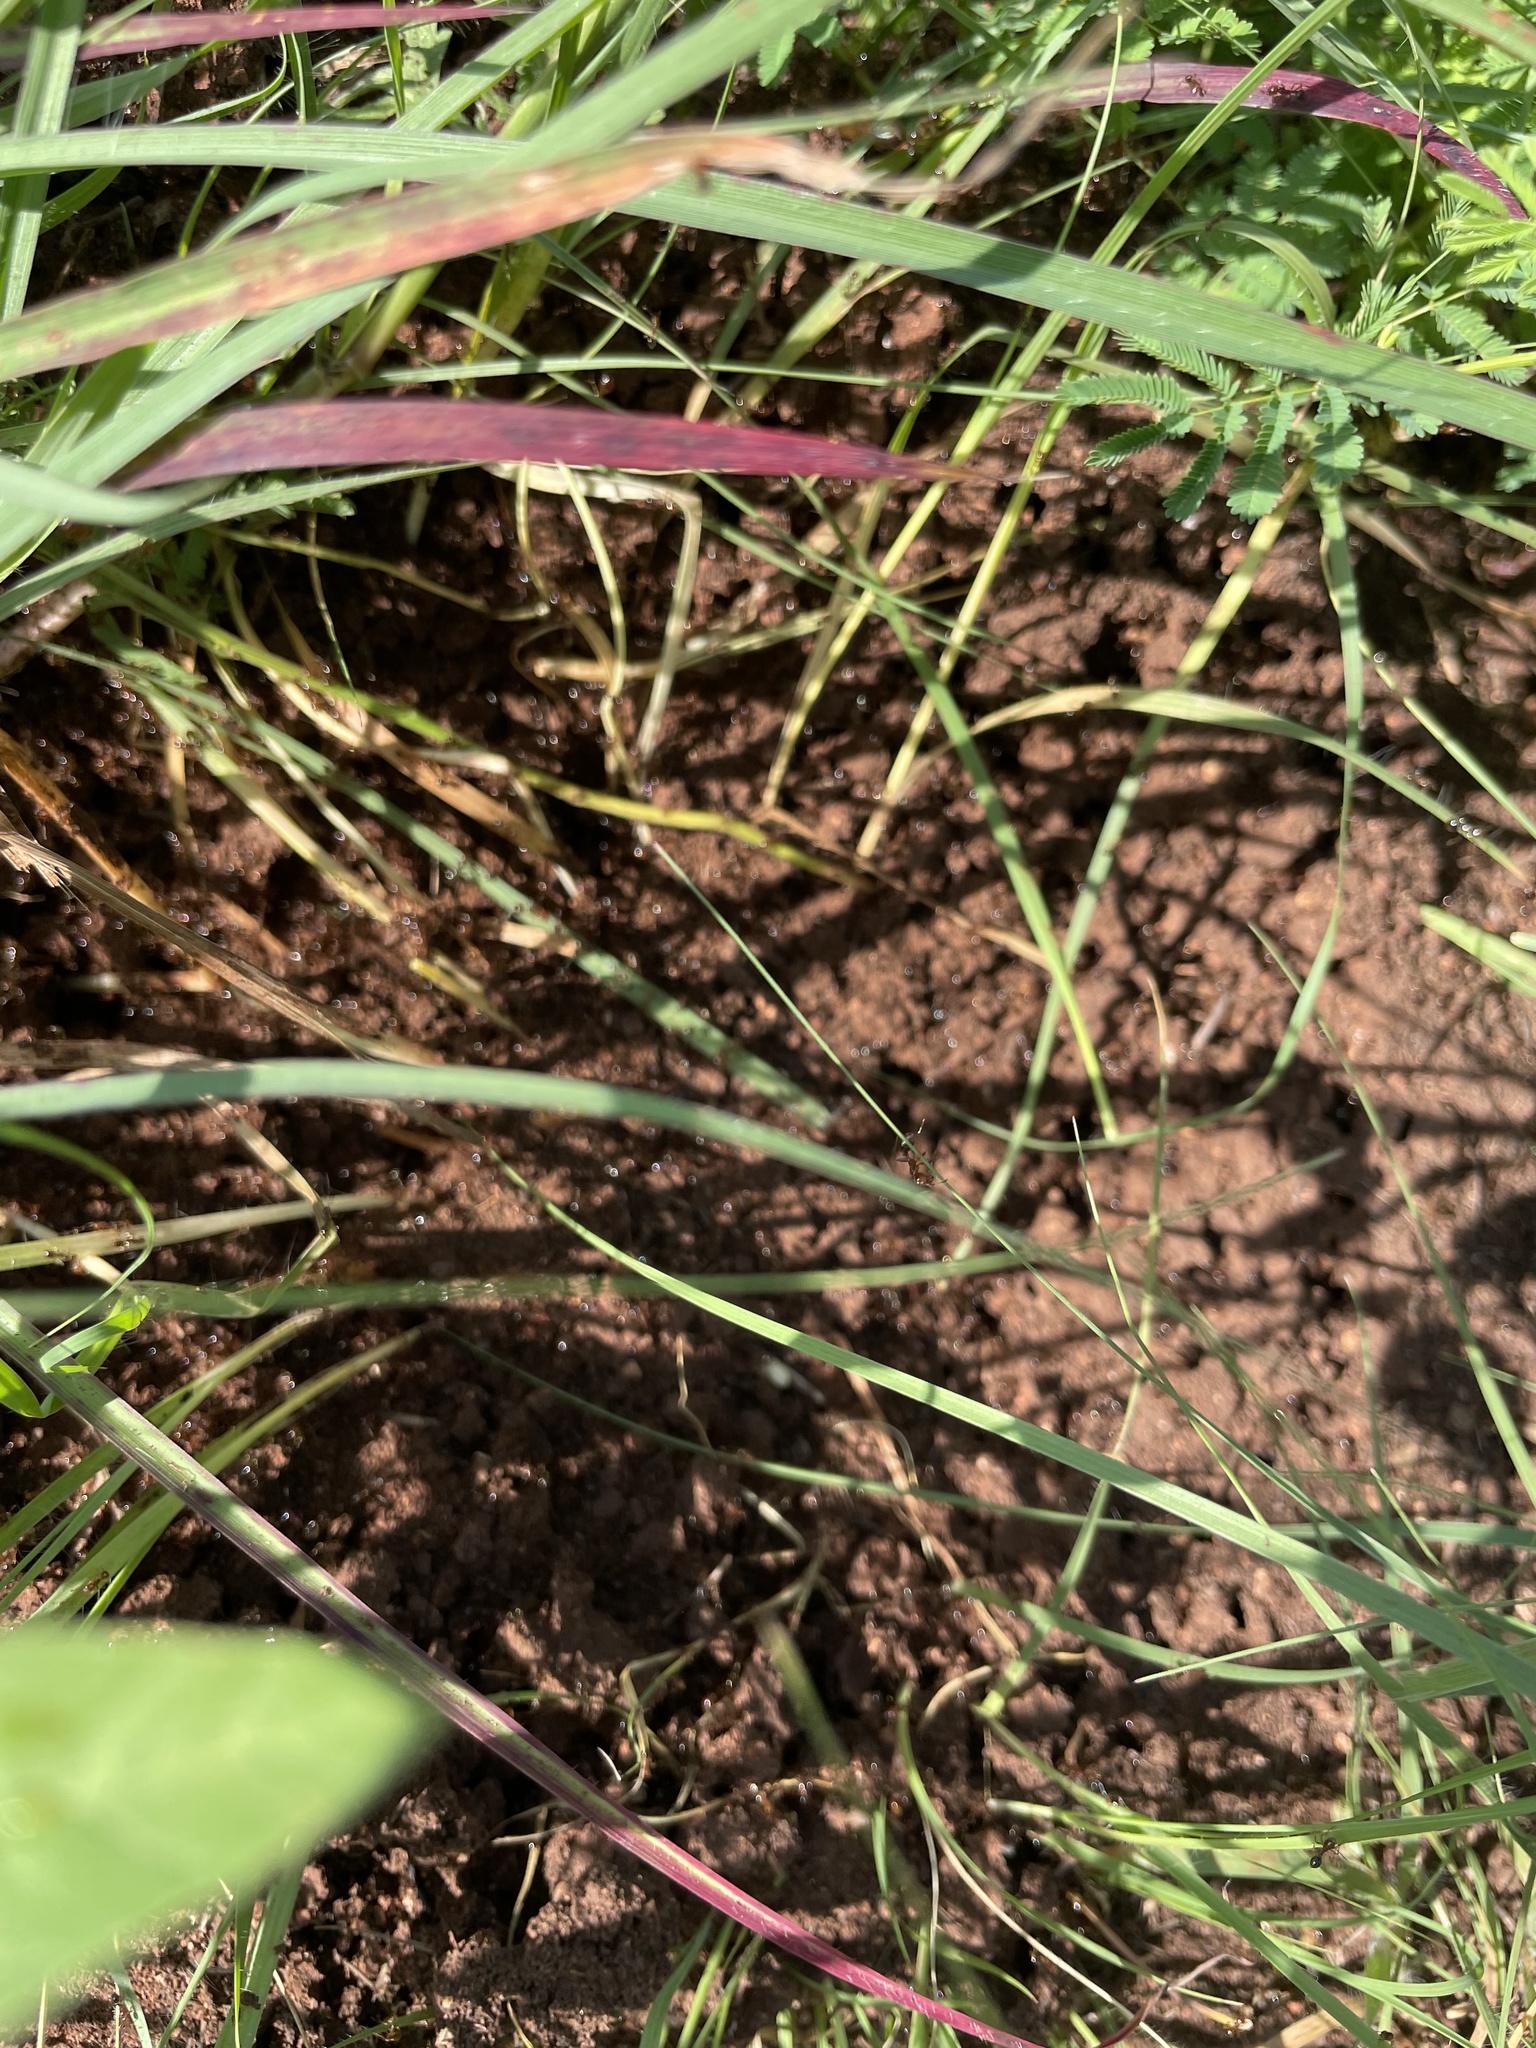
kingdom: Animalia
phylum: Arthropoda
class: Insecta
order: Hymenoptera
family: Formicidae
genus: Solenopsis
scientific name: Solenopsis invicta
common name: Red imported fire ant
